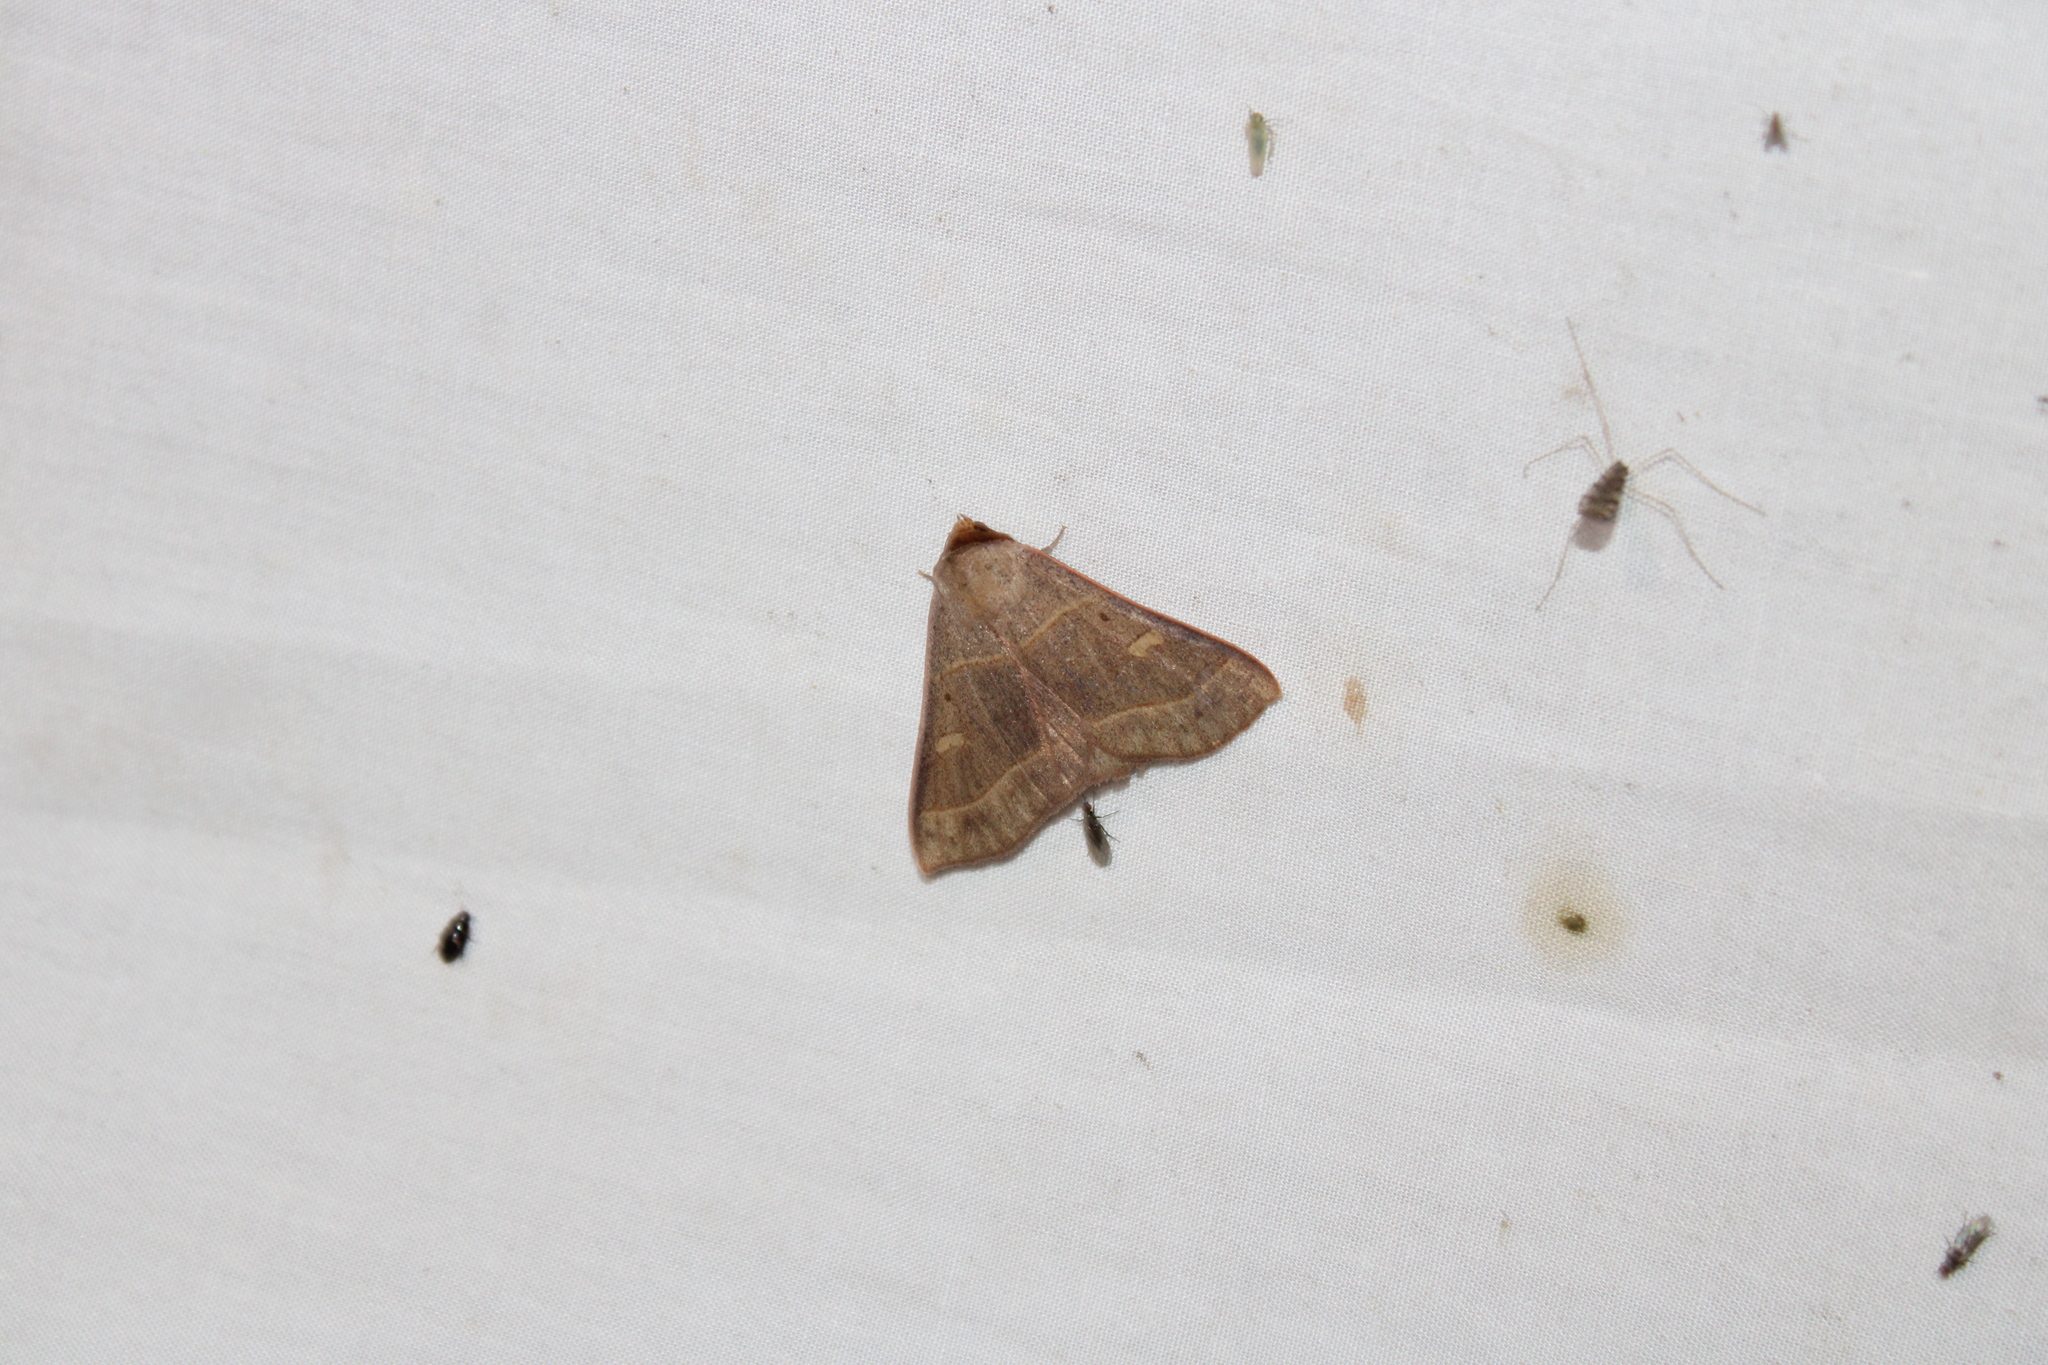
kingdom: Animalia
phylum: Arthropoda
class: Insecta
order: Lepidoptera
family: Erebidae
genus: Panopoda
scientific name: Panopoda rufimargo
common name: Red-lined panopoda moth
